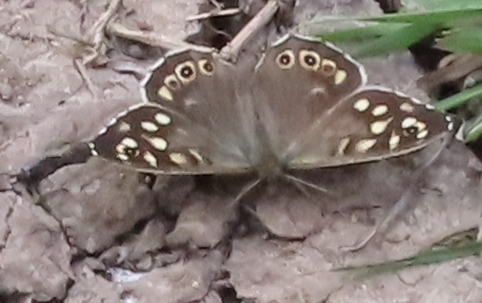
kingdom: Animalia
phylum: Arthropoda
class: Insecta
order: Lepidoptera
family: Nymphalidae
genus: Pararge
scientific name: Pararge aegeria
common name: Speckled wood
